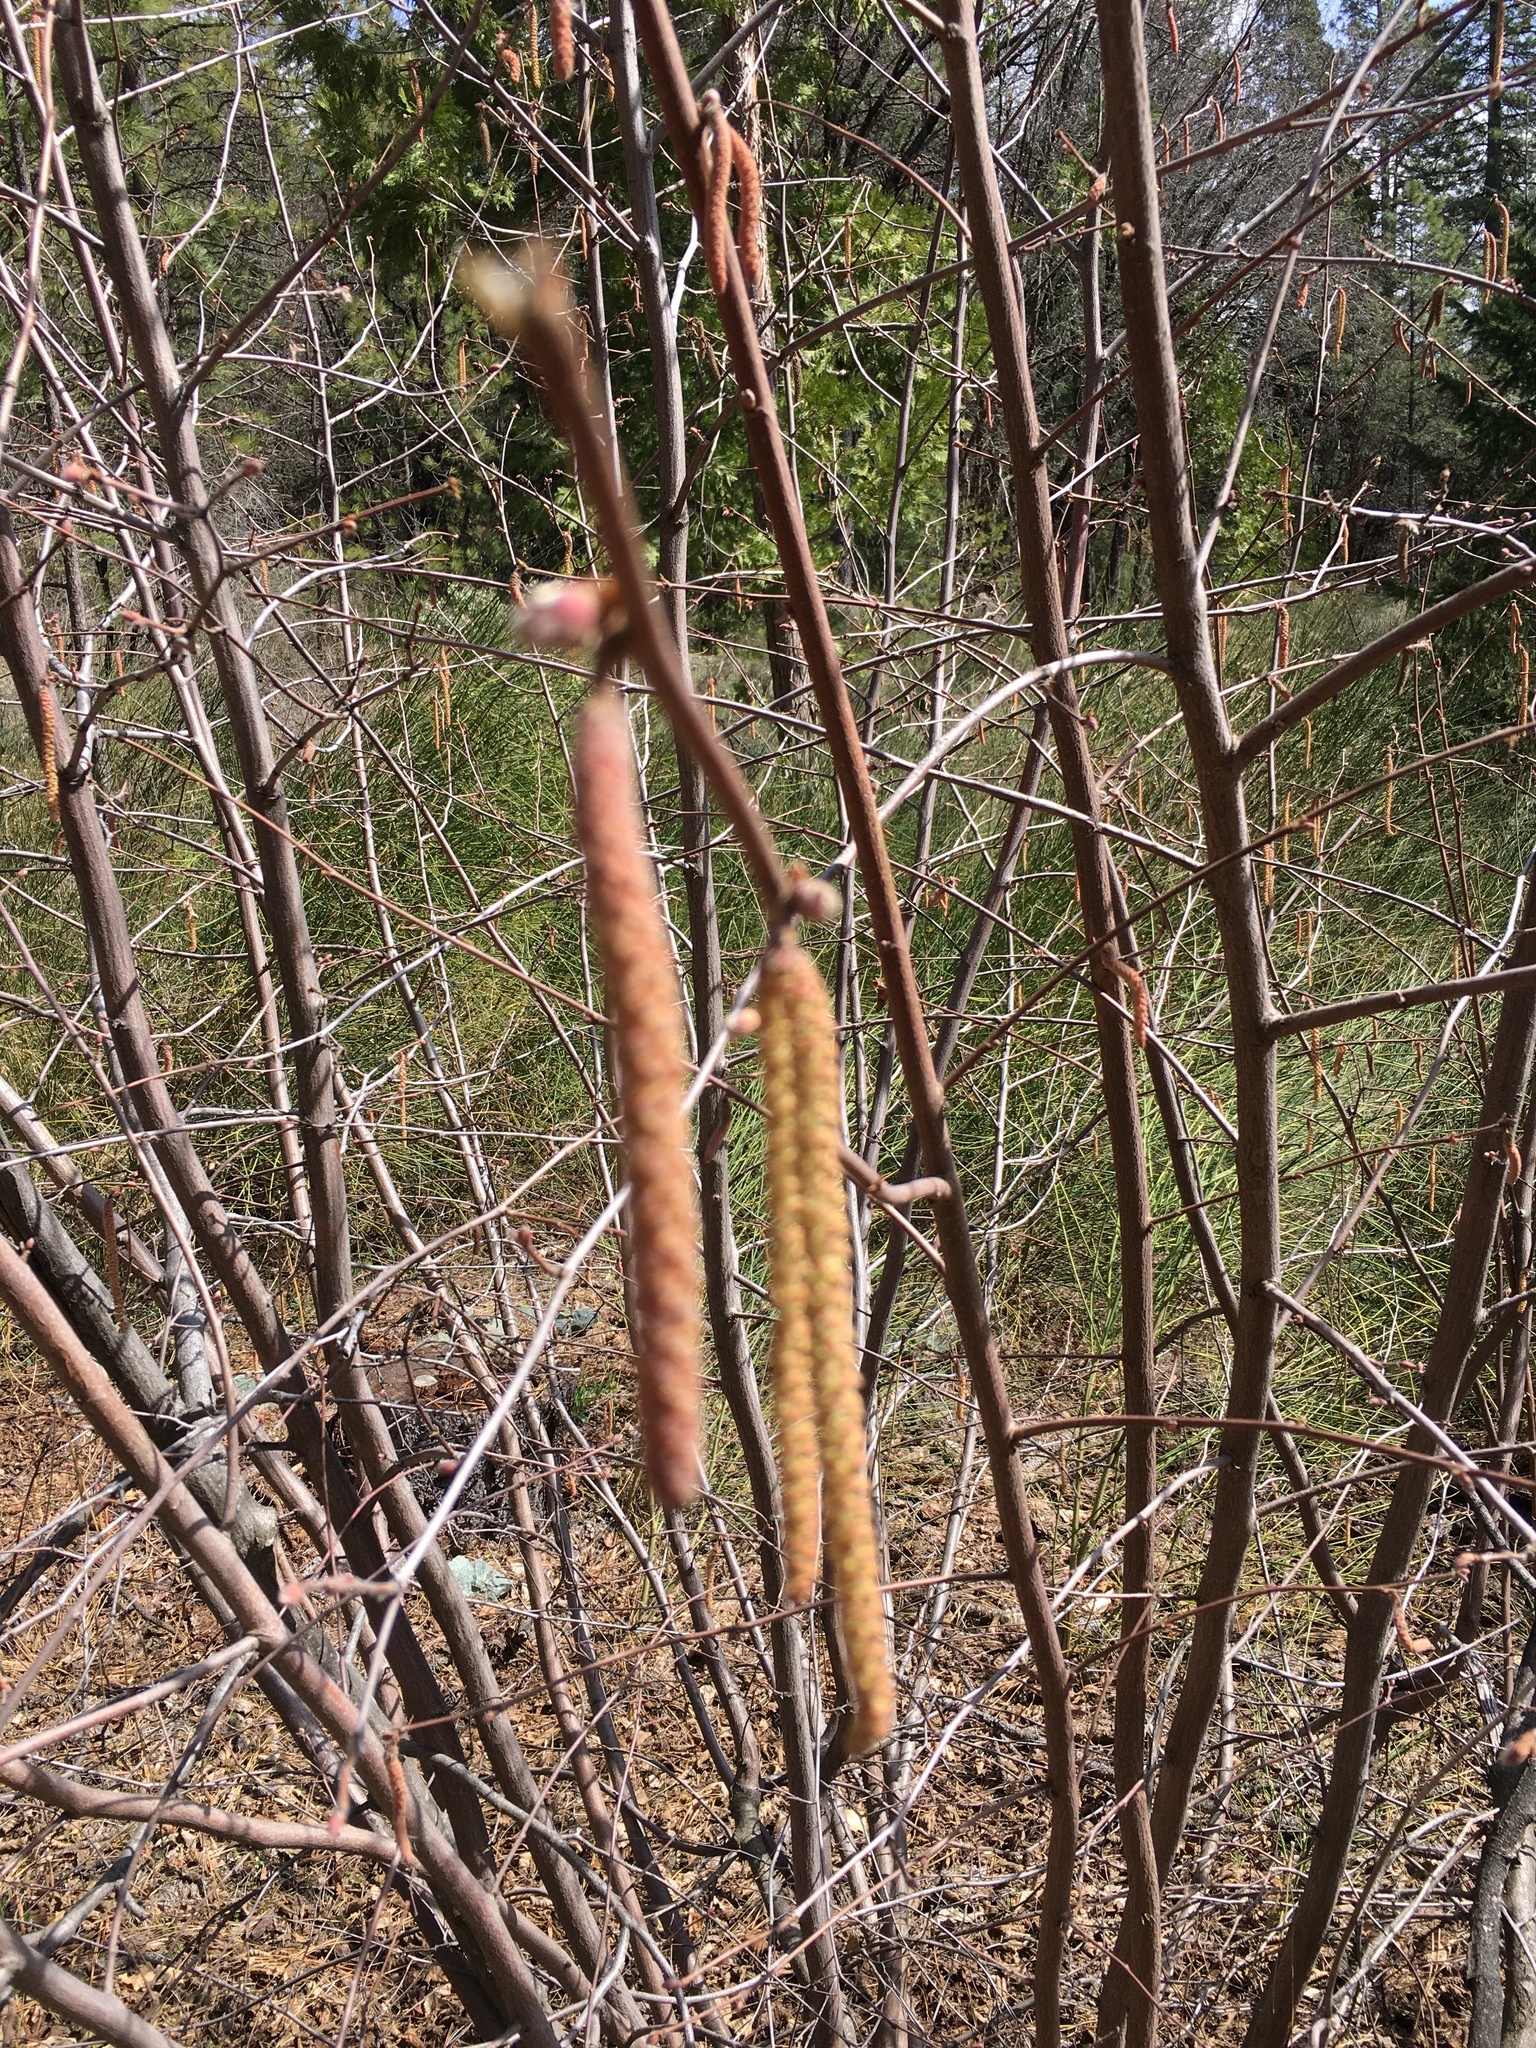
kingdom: Plantae
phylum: Tracheophyta
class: Magnoliopsida
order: Fagales
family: Betulaceae
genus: Corylus
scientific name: Corylus cornuta
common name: Beaked hazel
